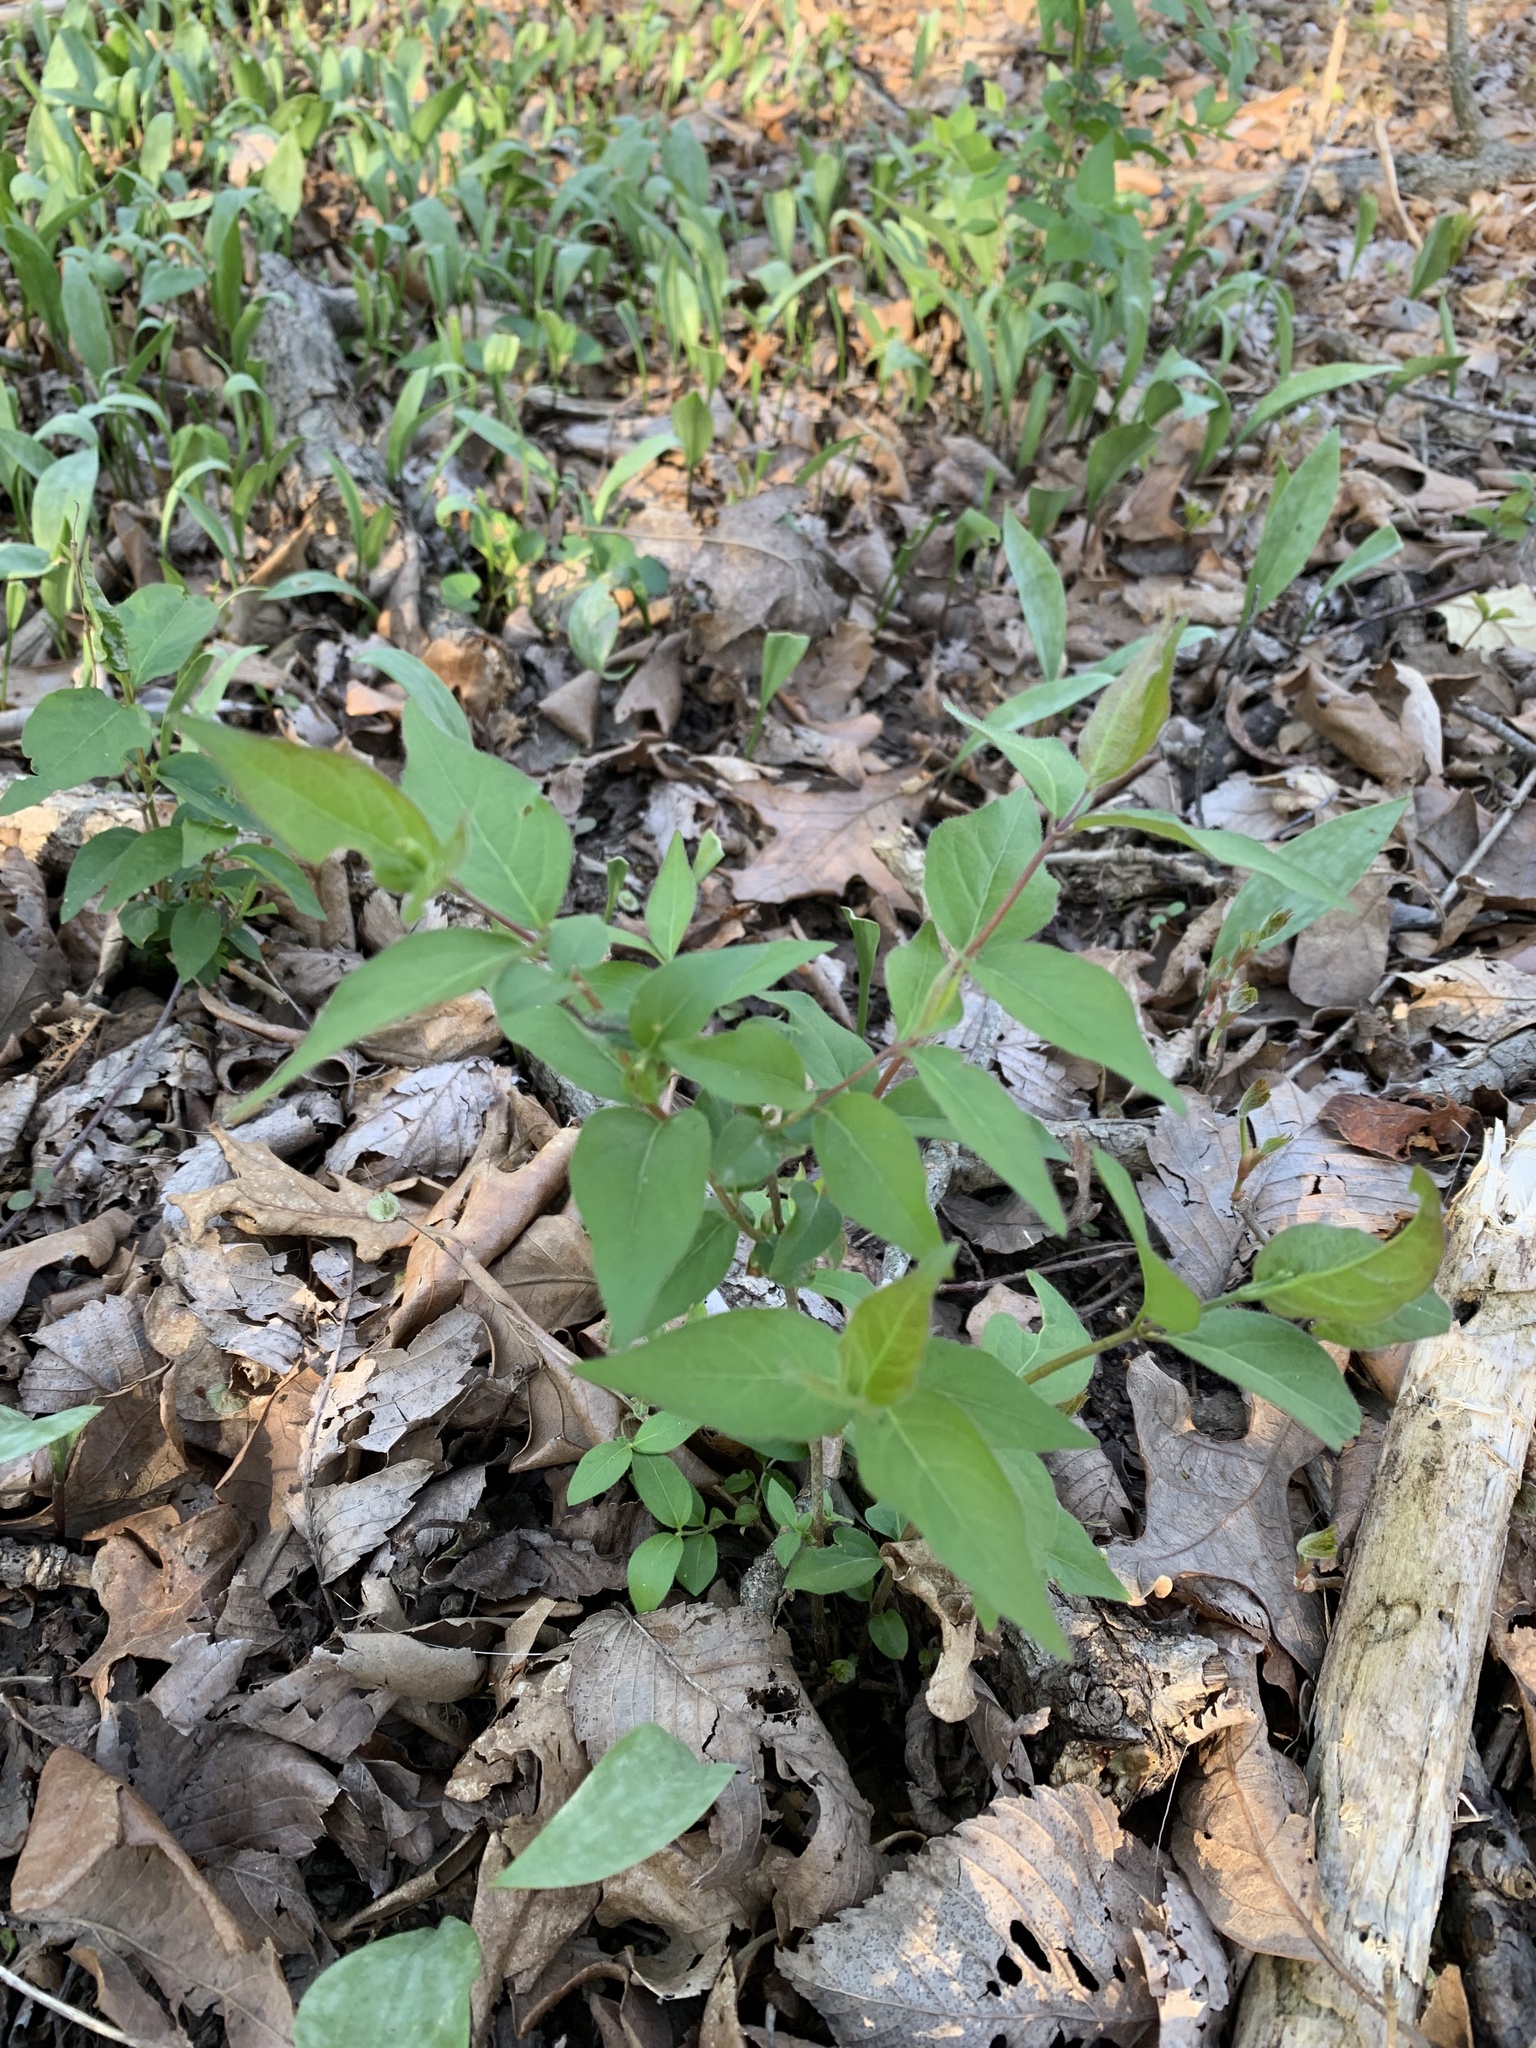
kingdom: Plantae
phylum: Tracheophyta
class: Magnoliopsida
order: Dipsacales
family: Caprifoliaceae
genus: Lonicera
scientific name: Lonicera maackii
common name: Amur honeysuckle
